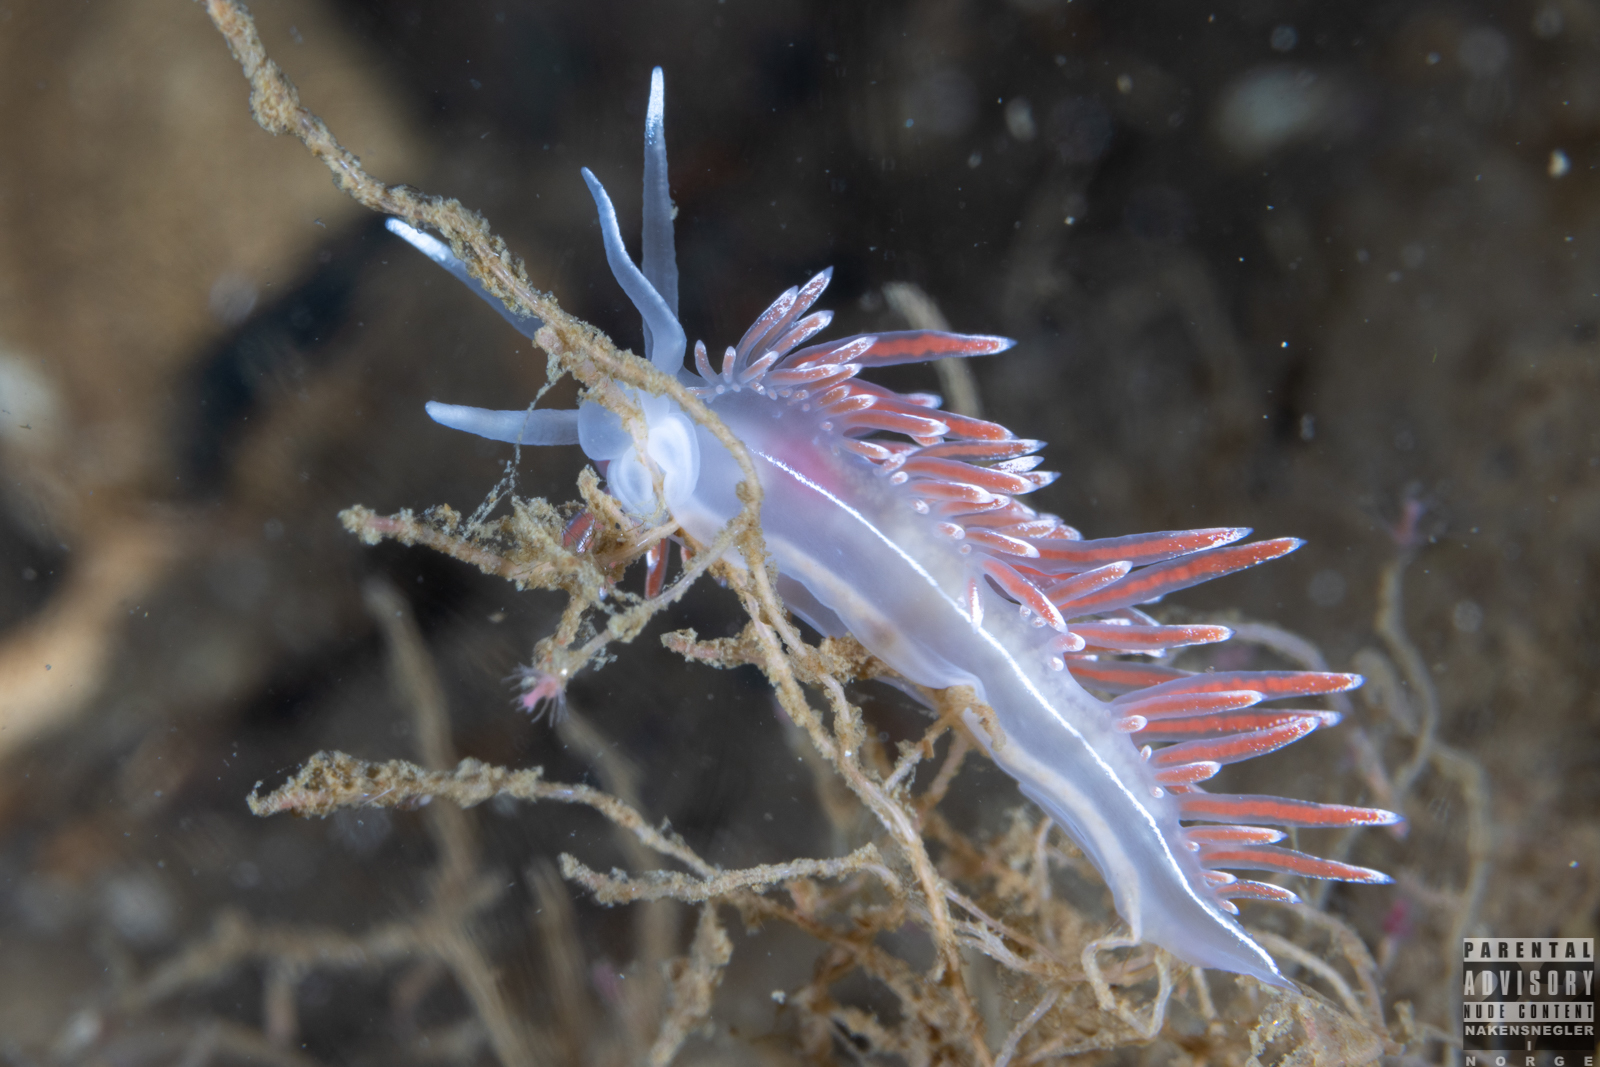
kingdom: Animalia
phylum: Mollusca
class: Gastropoda
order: Nudibranchia
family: Coryphellidae
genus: Coryphella
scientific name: Coryphella lineata
